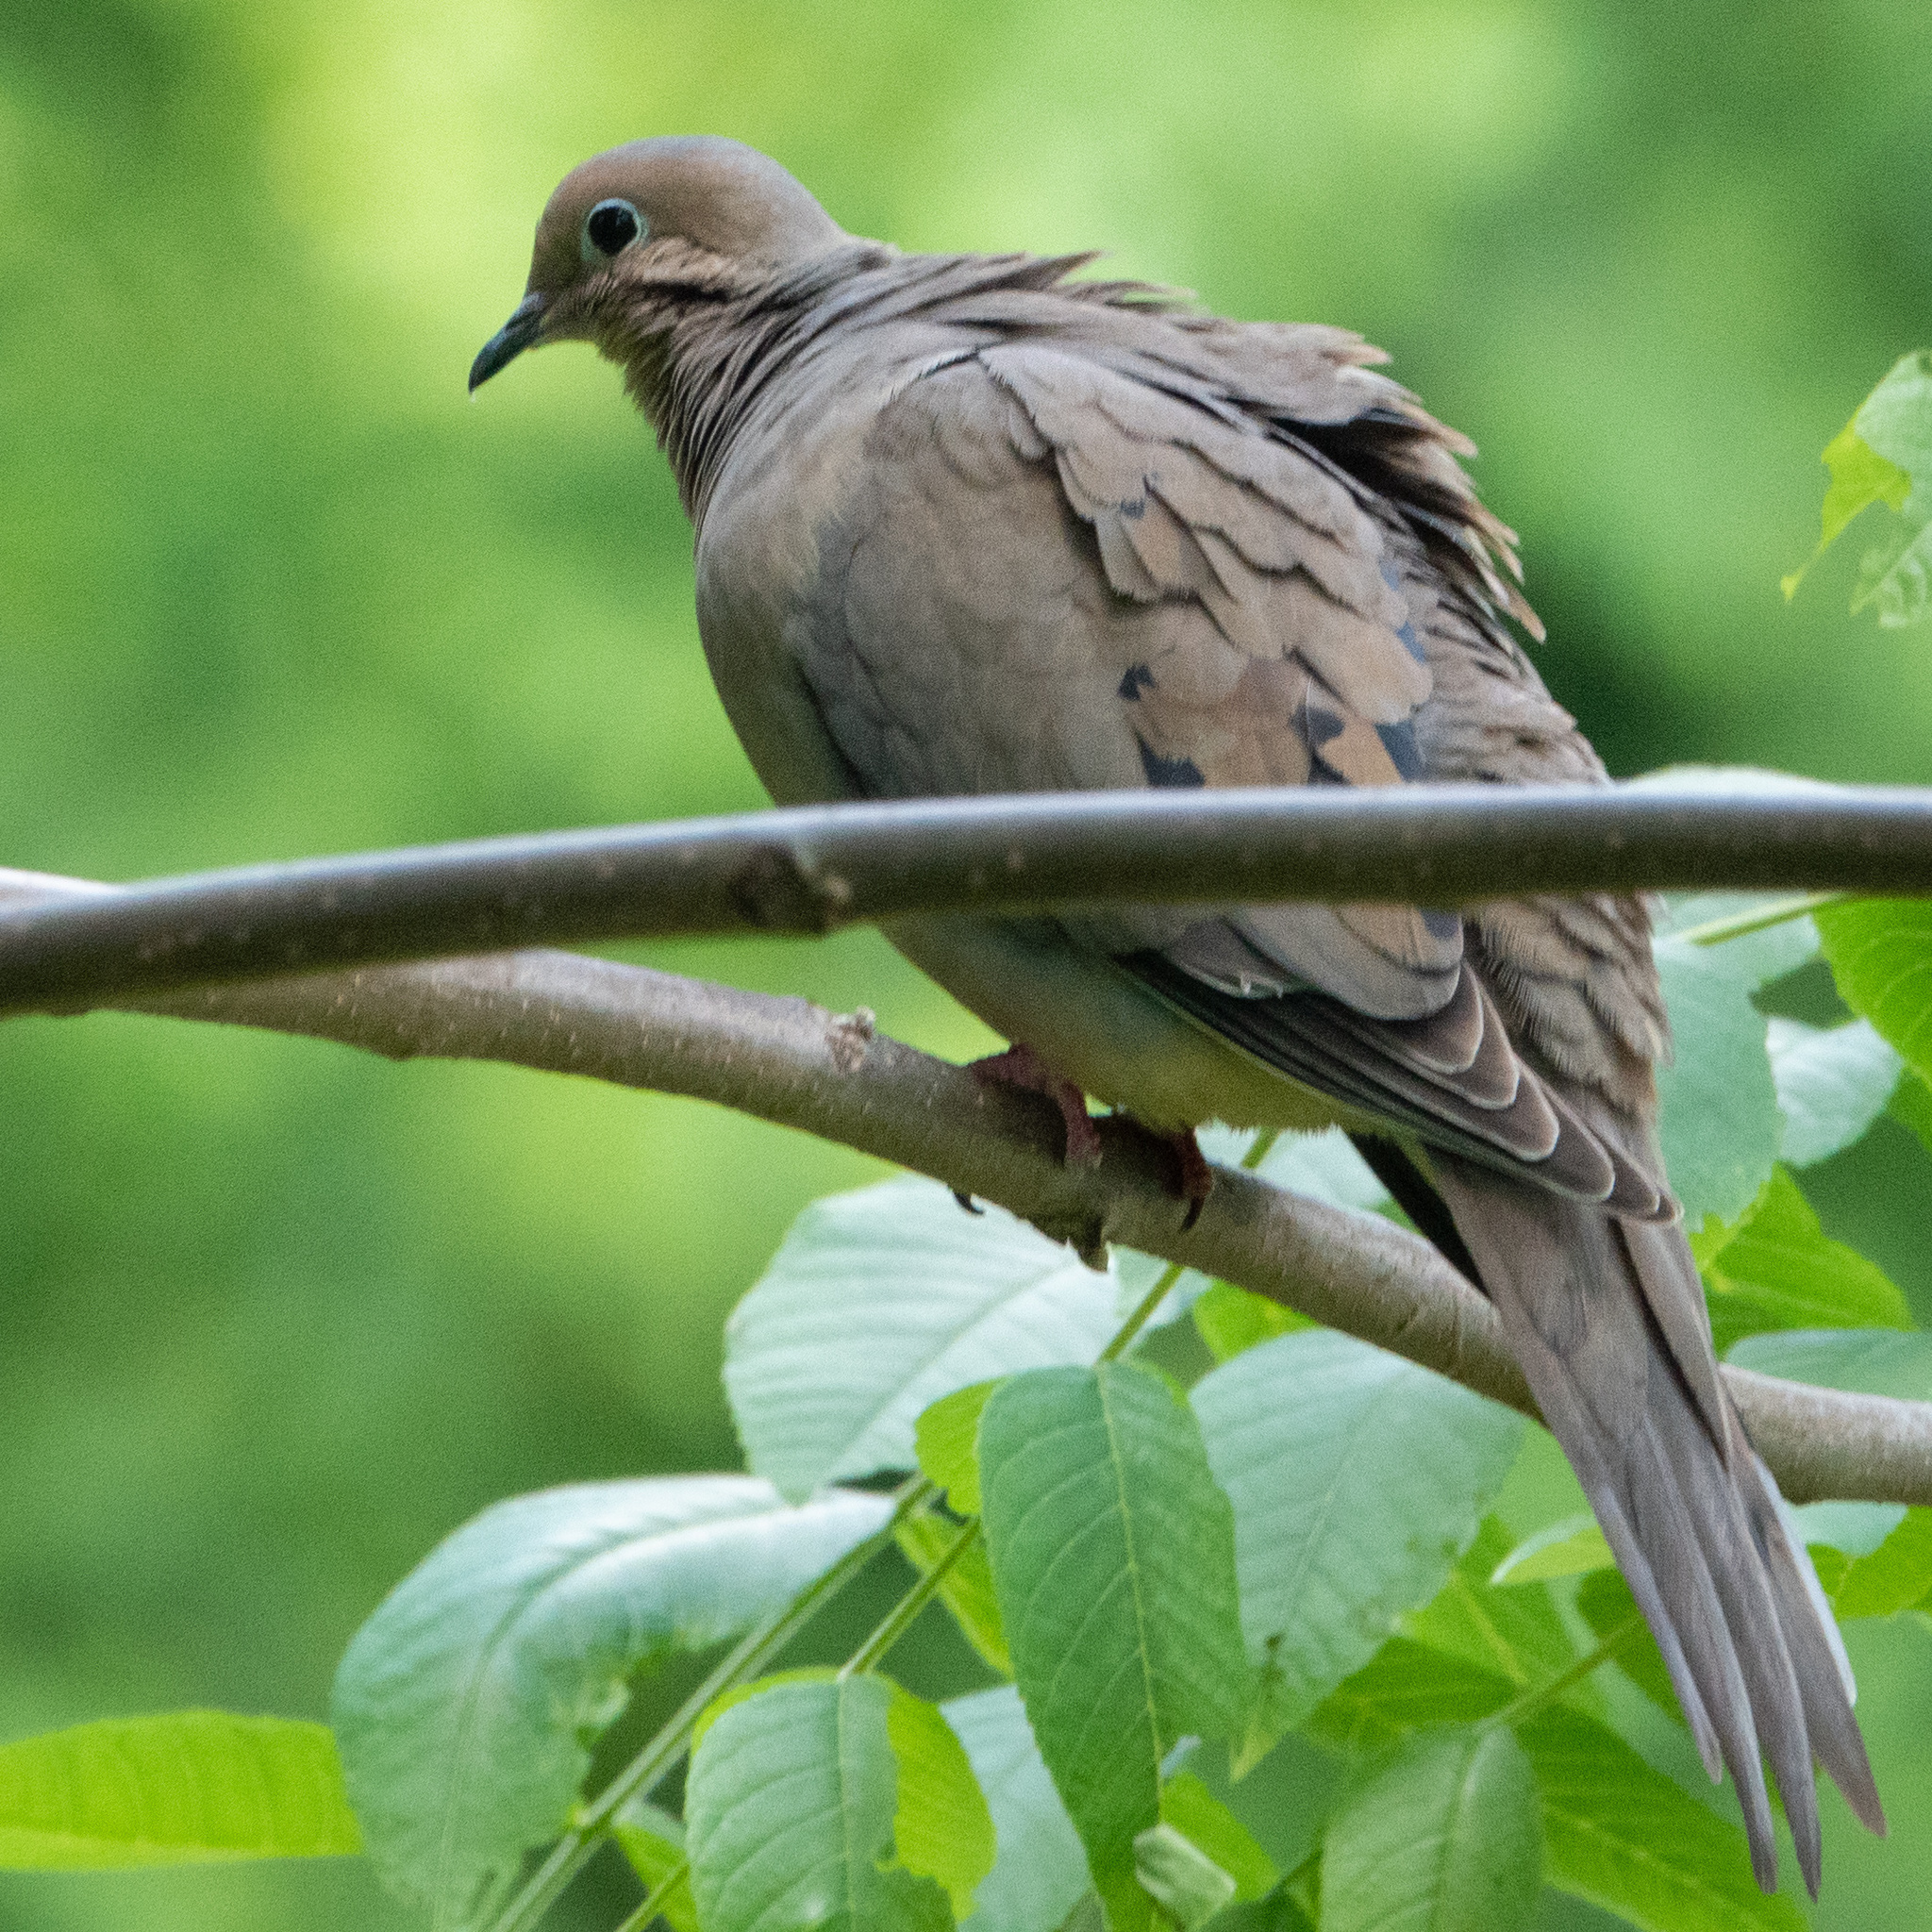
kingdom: Animalia
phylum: Chordata
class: Aves
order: Columbiformes
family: Columbidae
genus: Zenaida
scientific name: Zenaida macroura
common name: Mourning dove
